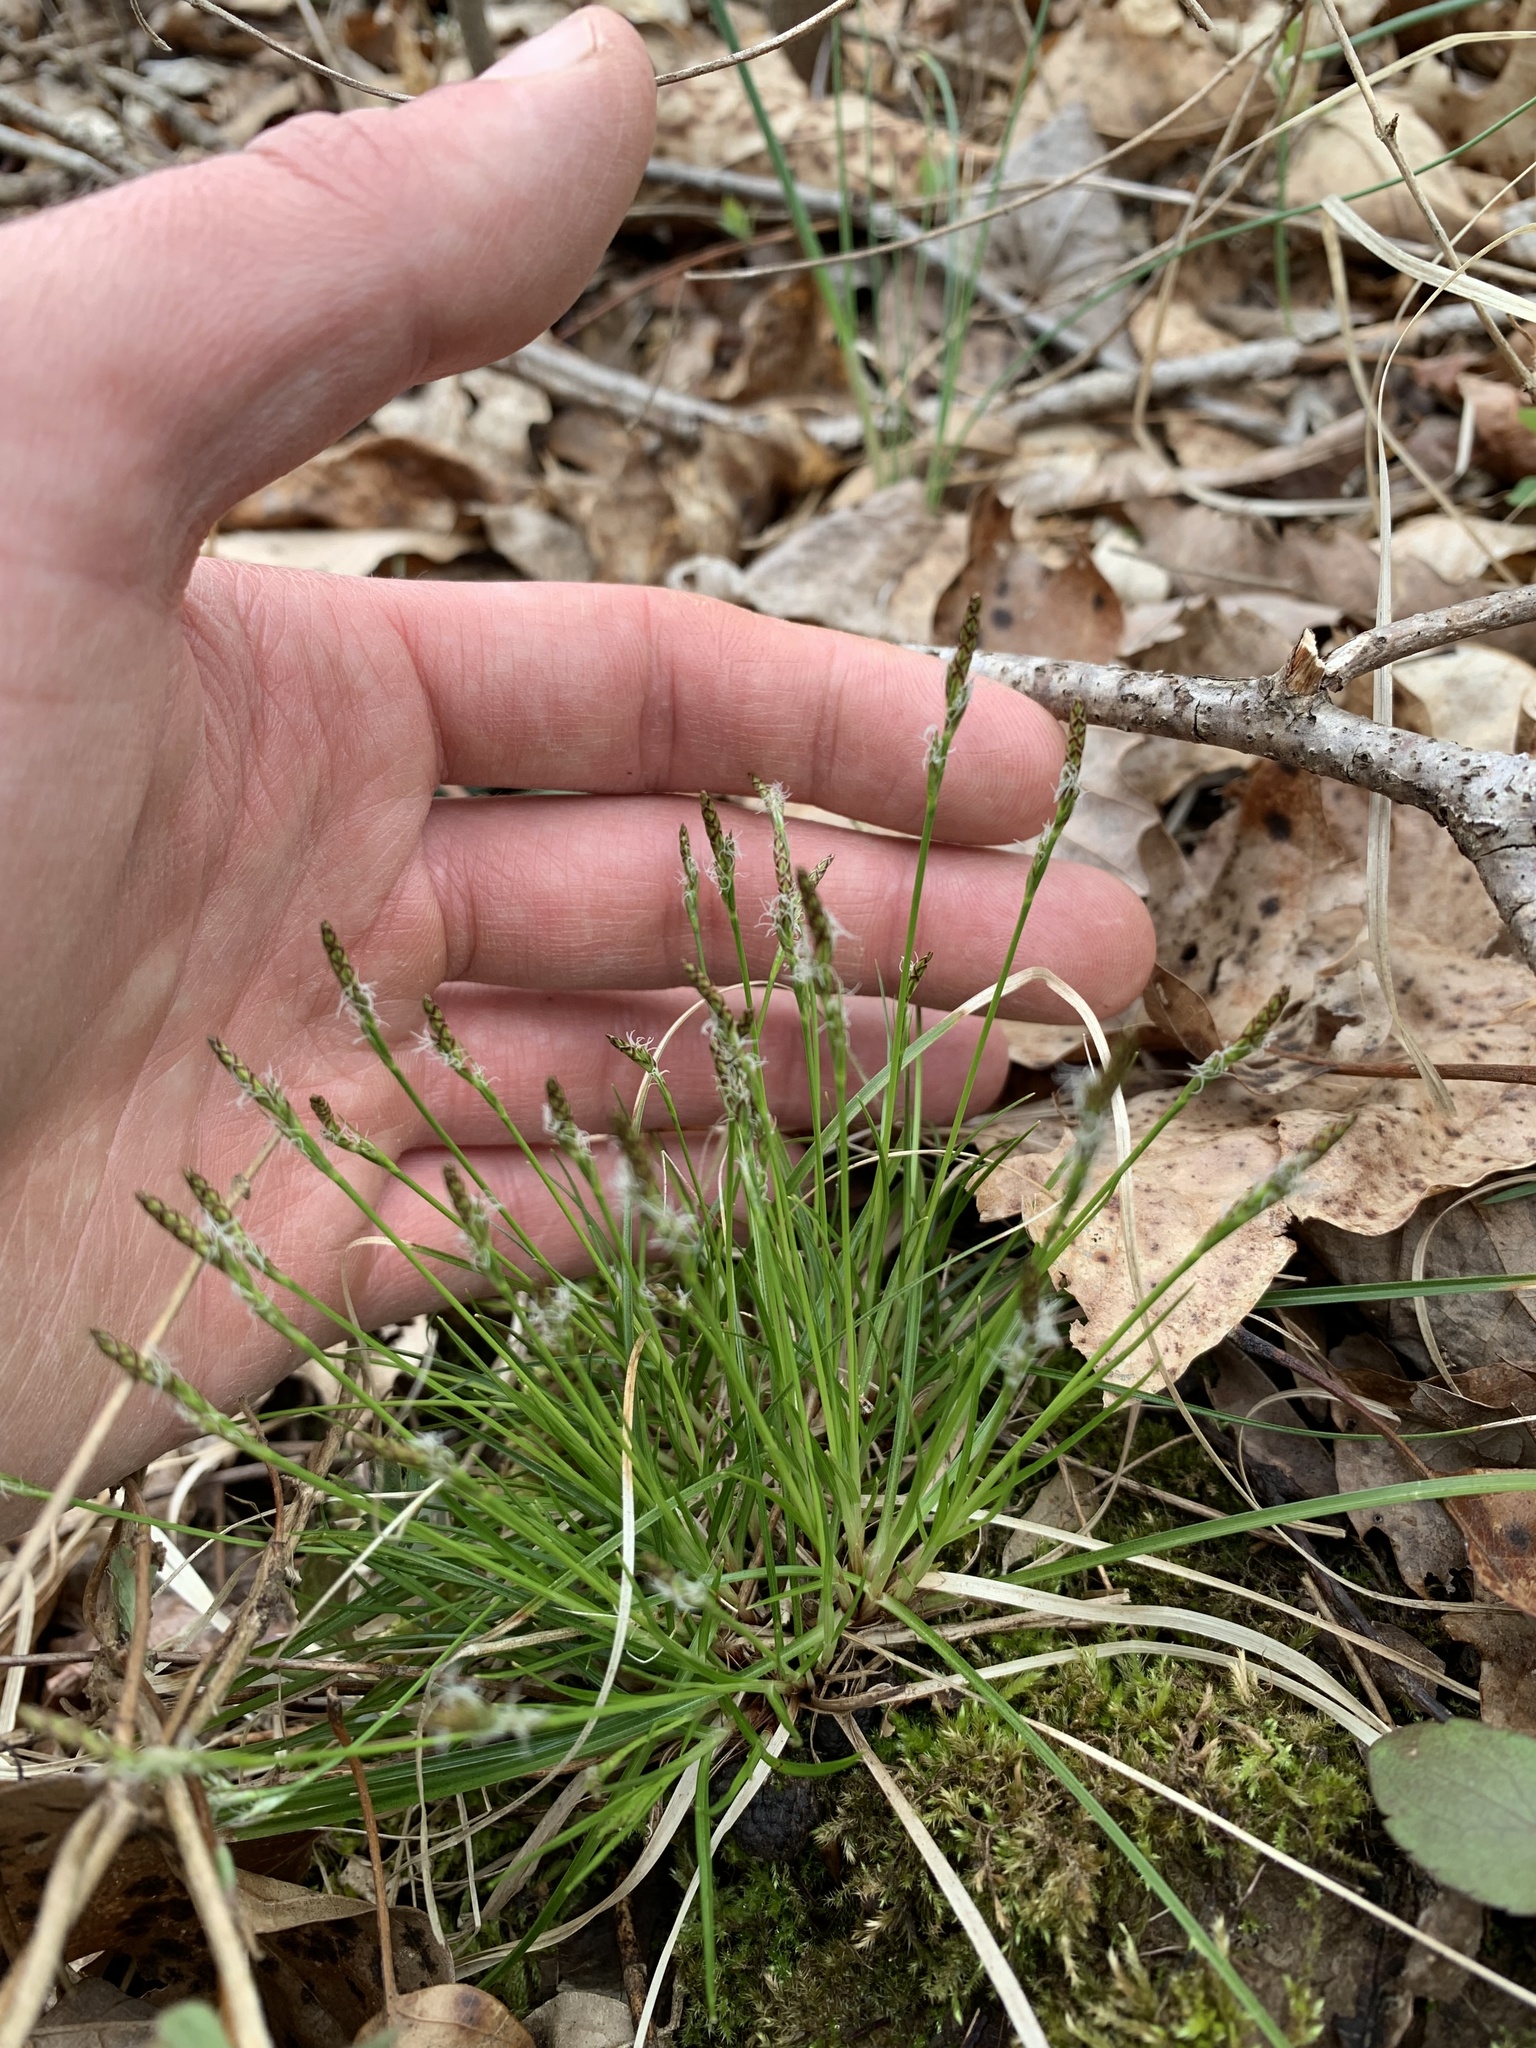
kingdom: Plantae
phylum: Tracheophyta
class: Liliopsida
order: Poales
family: Cyperaceae
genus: Carex
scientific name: Carex communis
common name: Colonial oak sedge
